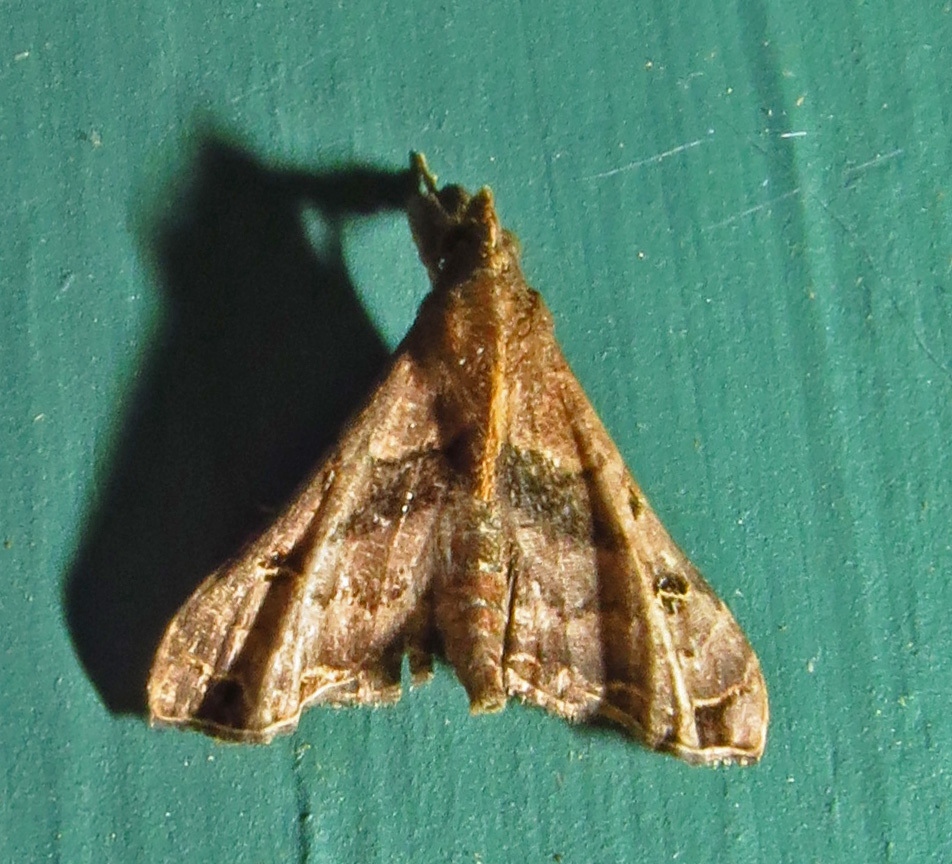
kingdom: Animalia
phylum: Arthropoda
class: Insecta
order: Lepidoptera
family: Erebidae
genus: Palthis
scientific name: Palthis asopialis
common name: Faint-spotted palthis moth
